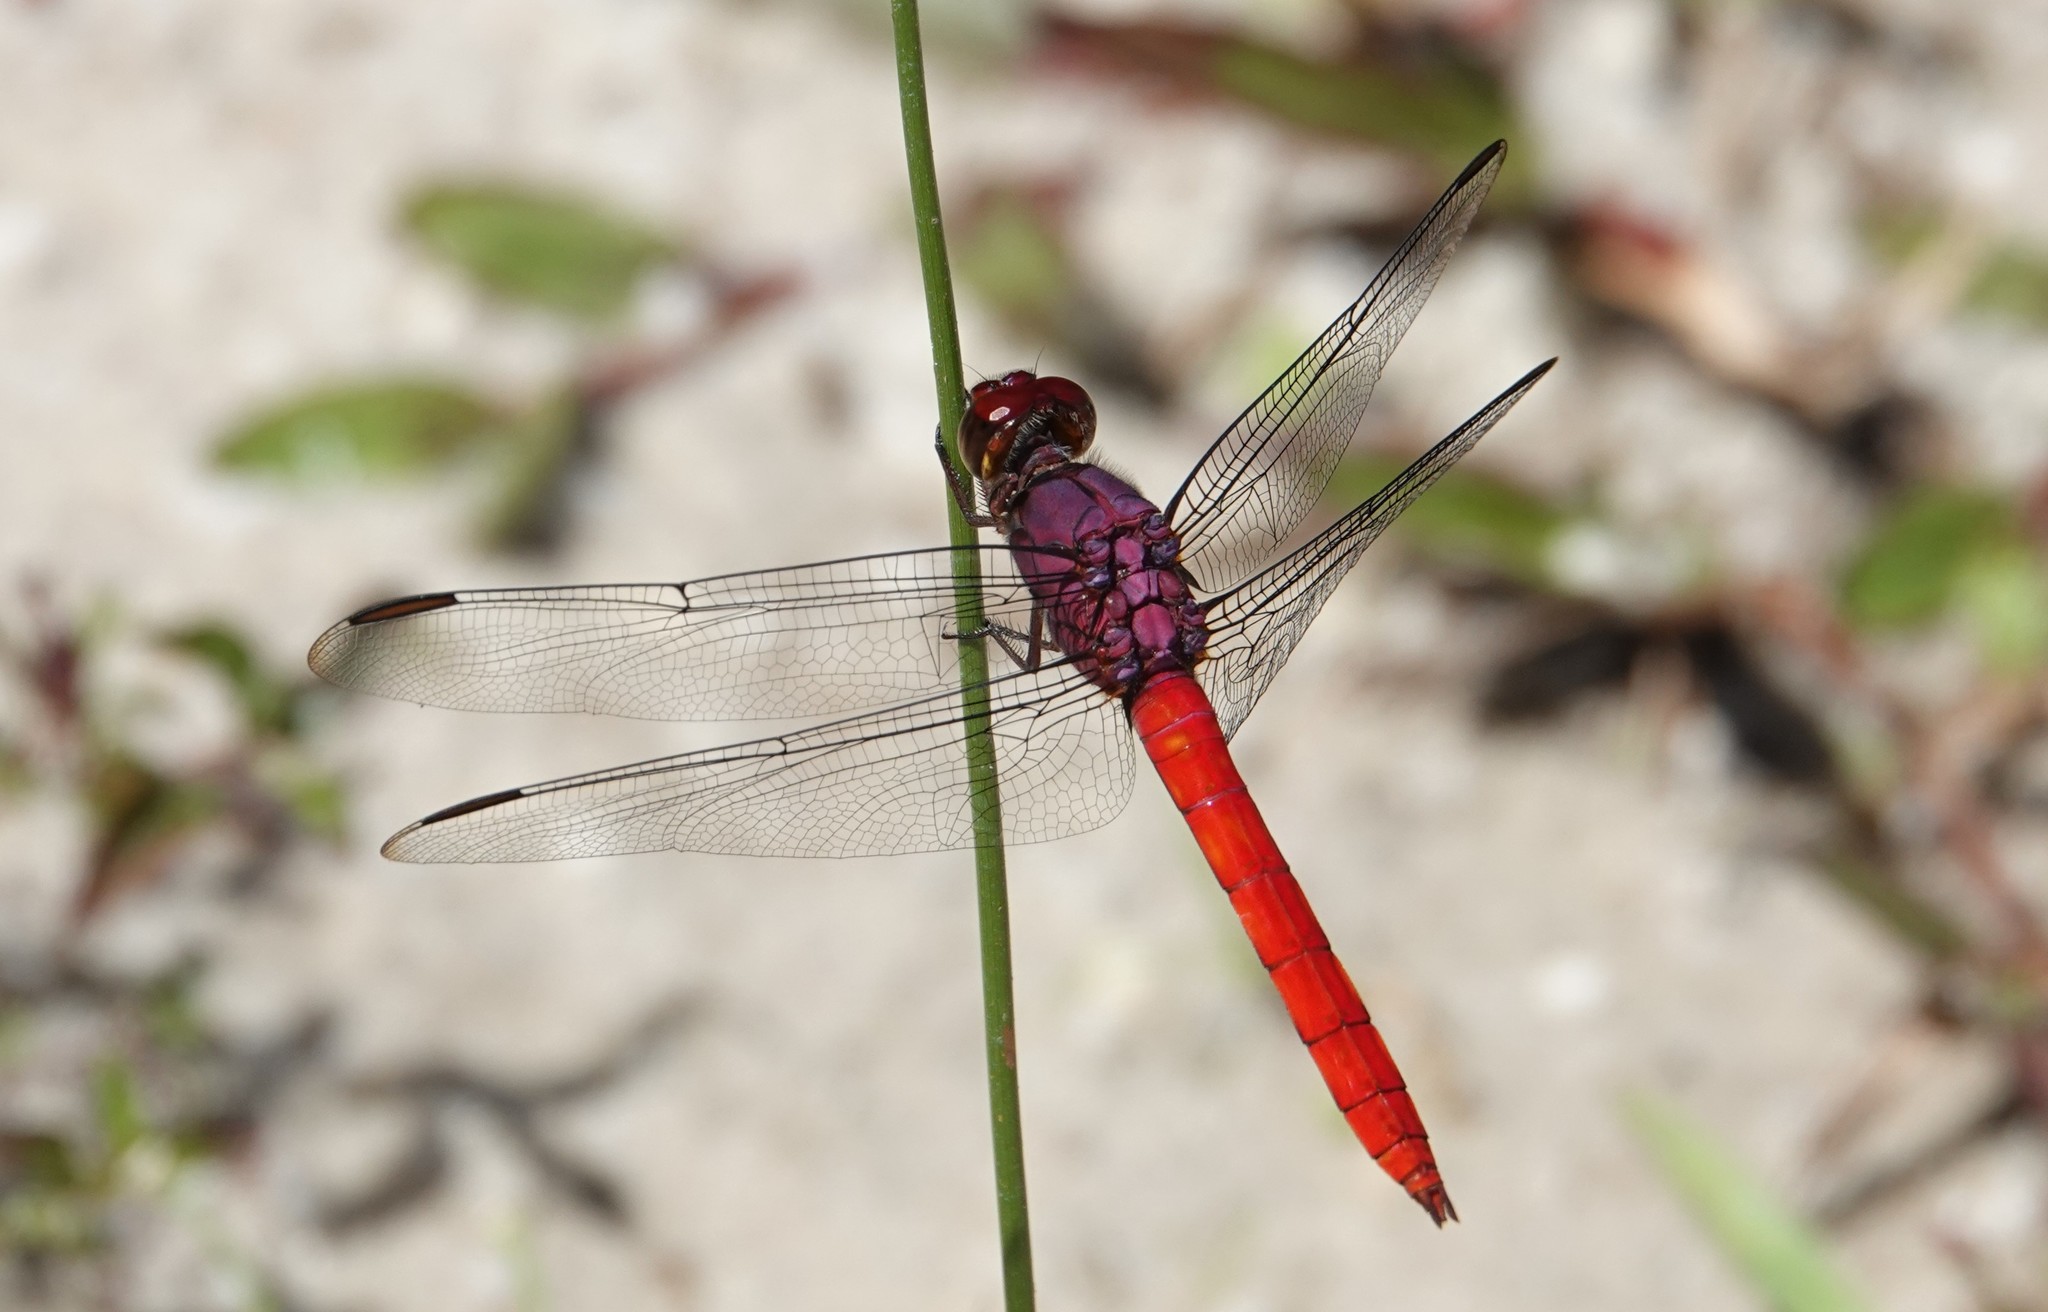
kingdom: Animalia
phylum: Arthropoda
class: Insecta
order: Odonata
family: Libellulidae
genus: Orthemis
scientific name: Orthemis schmidti
